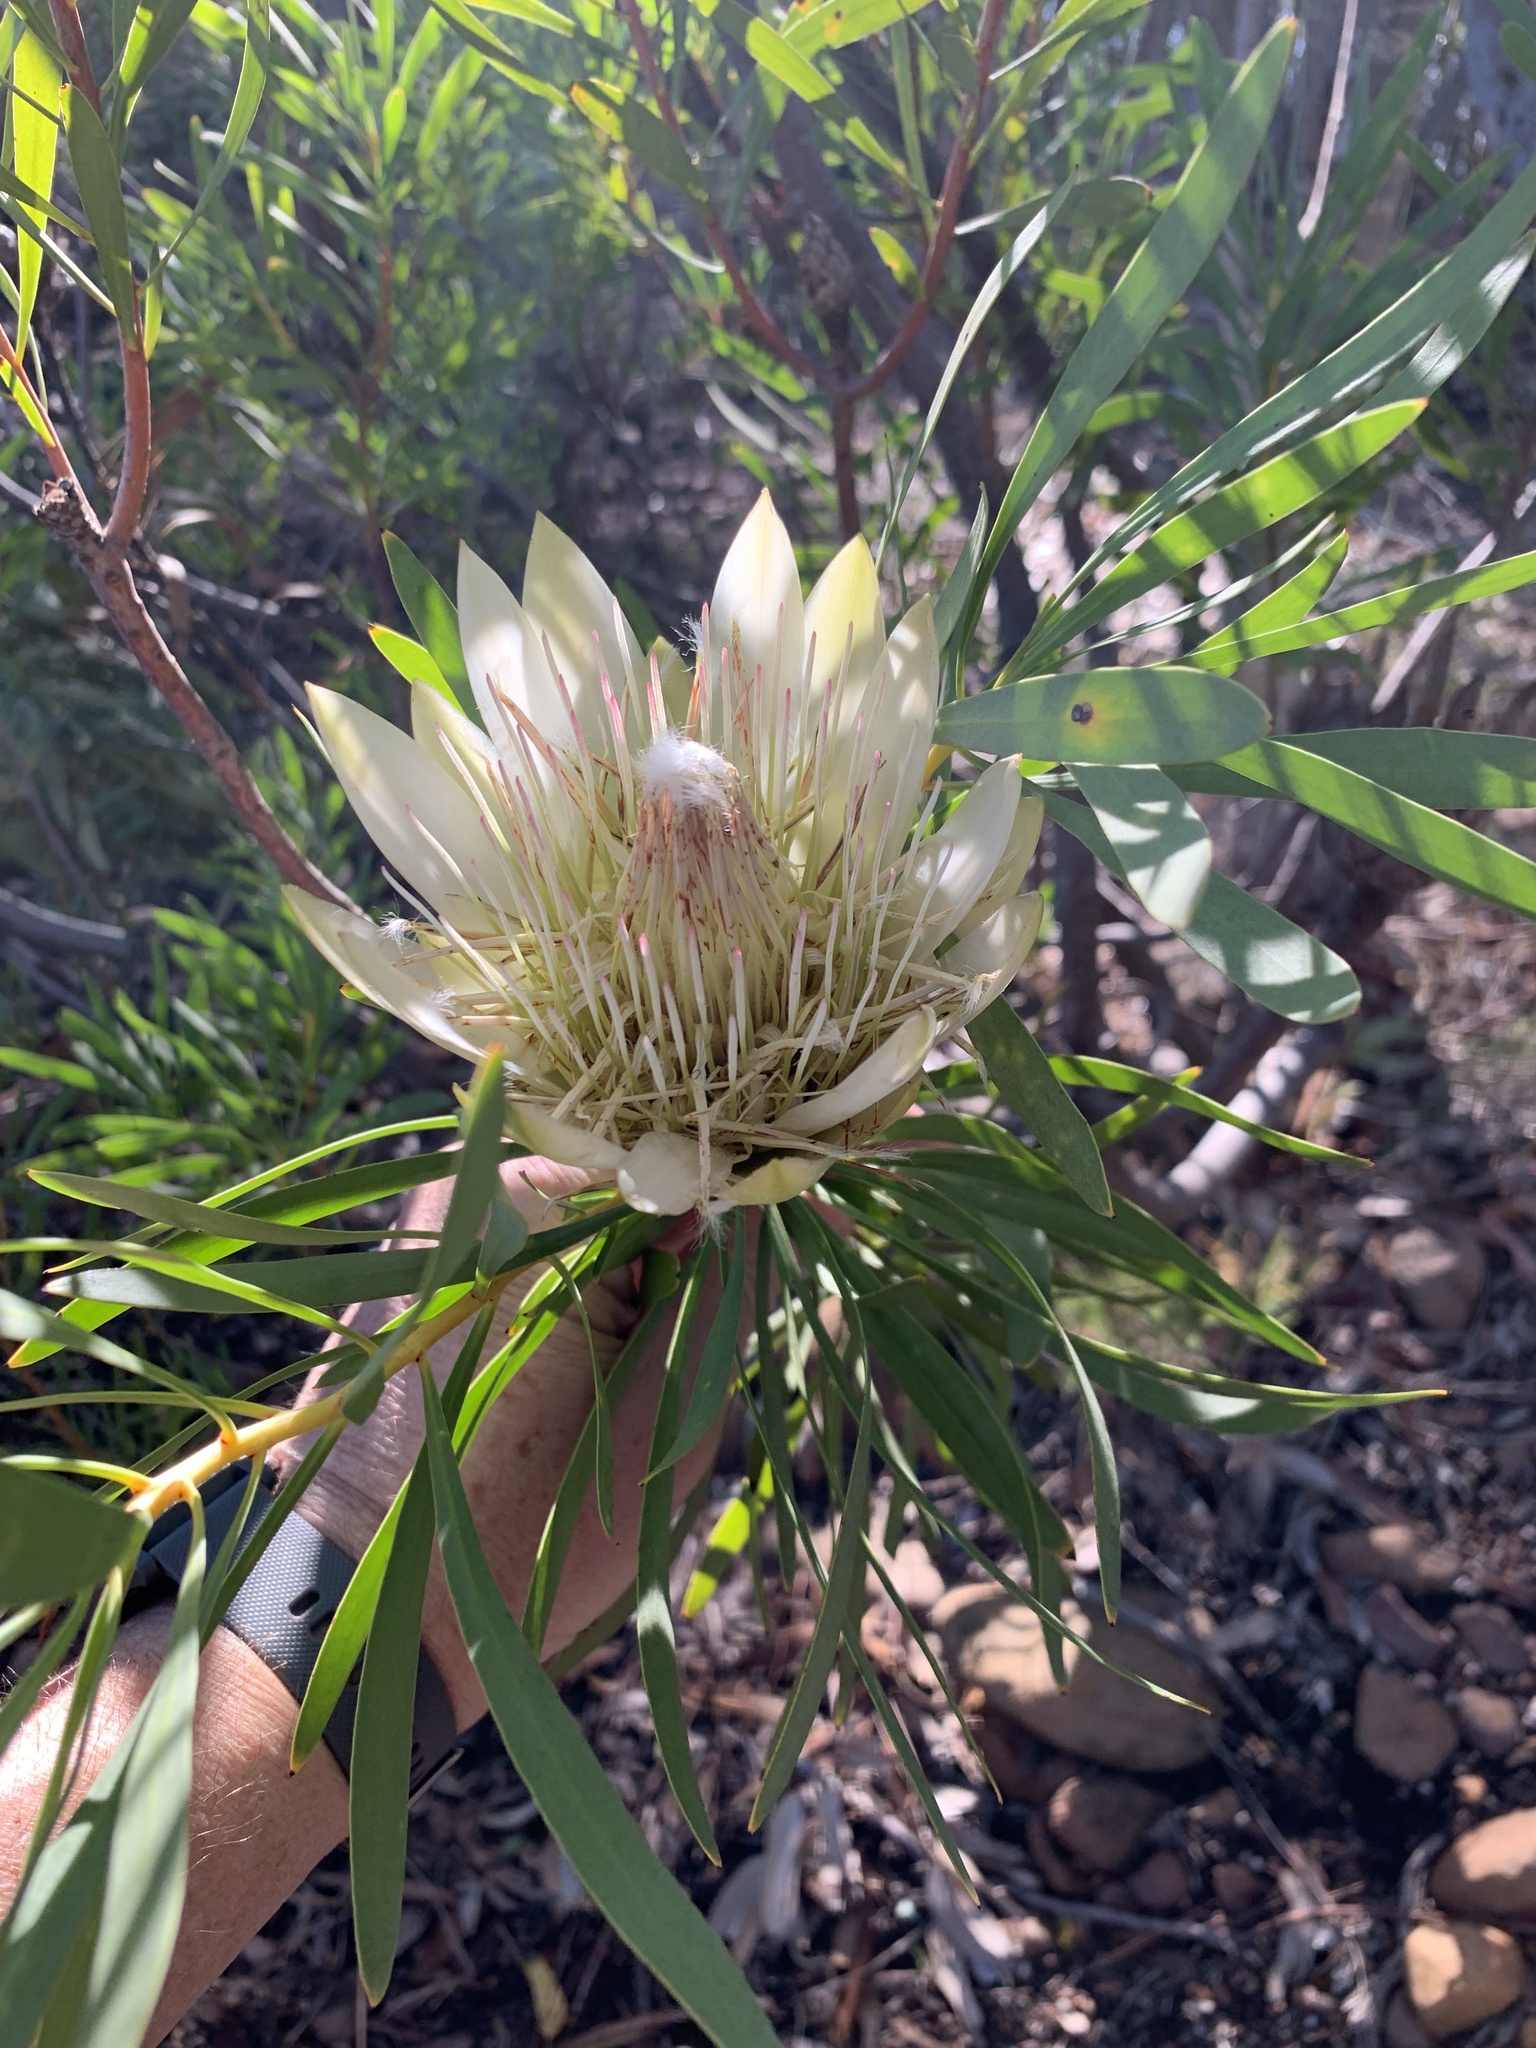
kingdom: Plantae
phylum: Tracheophyta
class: Magnoliopsida
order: Proteales
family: Proteaceae
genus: Protea
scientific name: Protea repens
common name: Sugarbush
